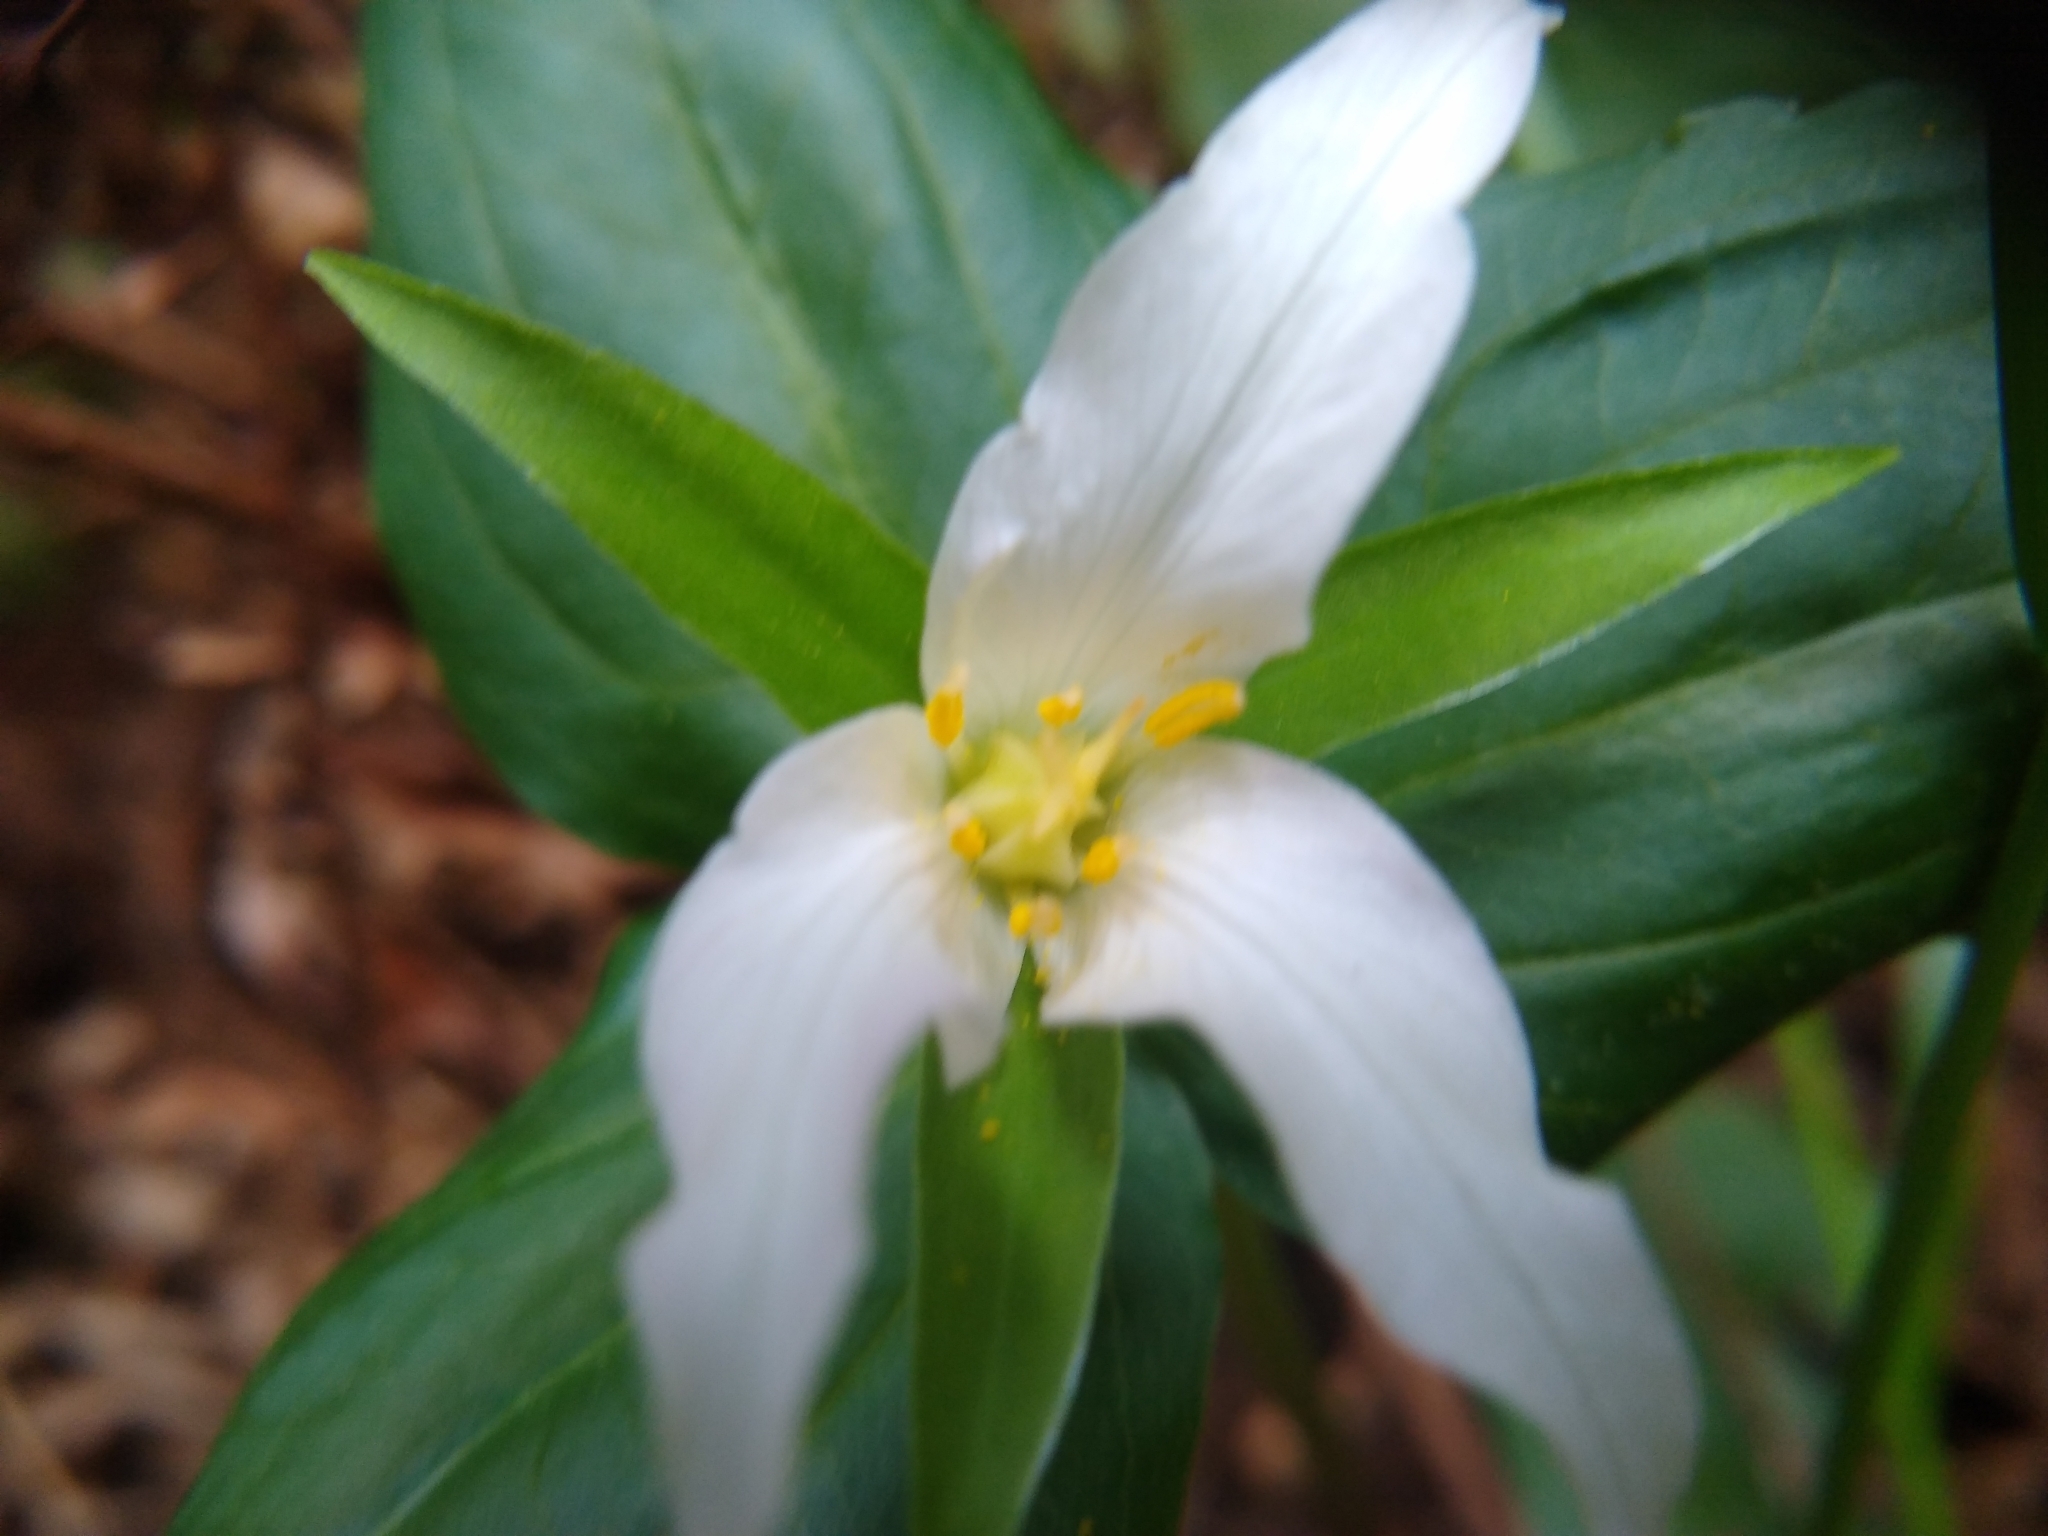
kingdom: Plantae
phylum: Tracheophyta
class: Liliopsida
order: Liliales
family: Melanthiaceae
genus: Trillium
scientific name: Trillium ovatum
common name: Pacific trillium
